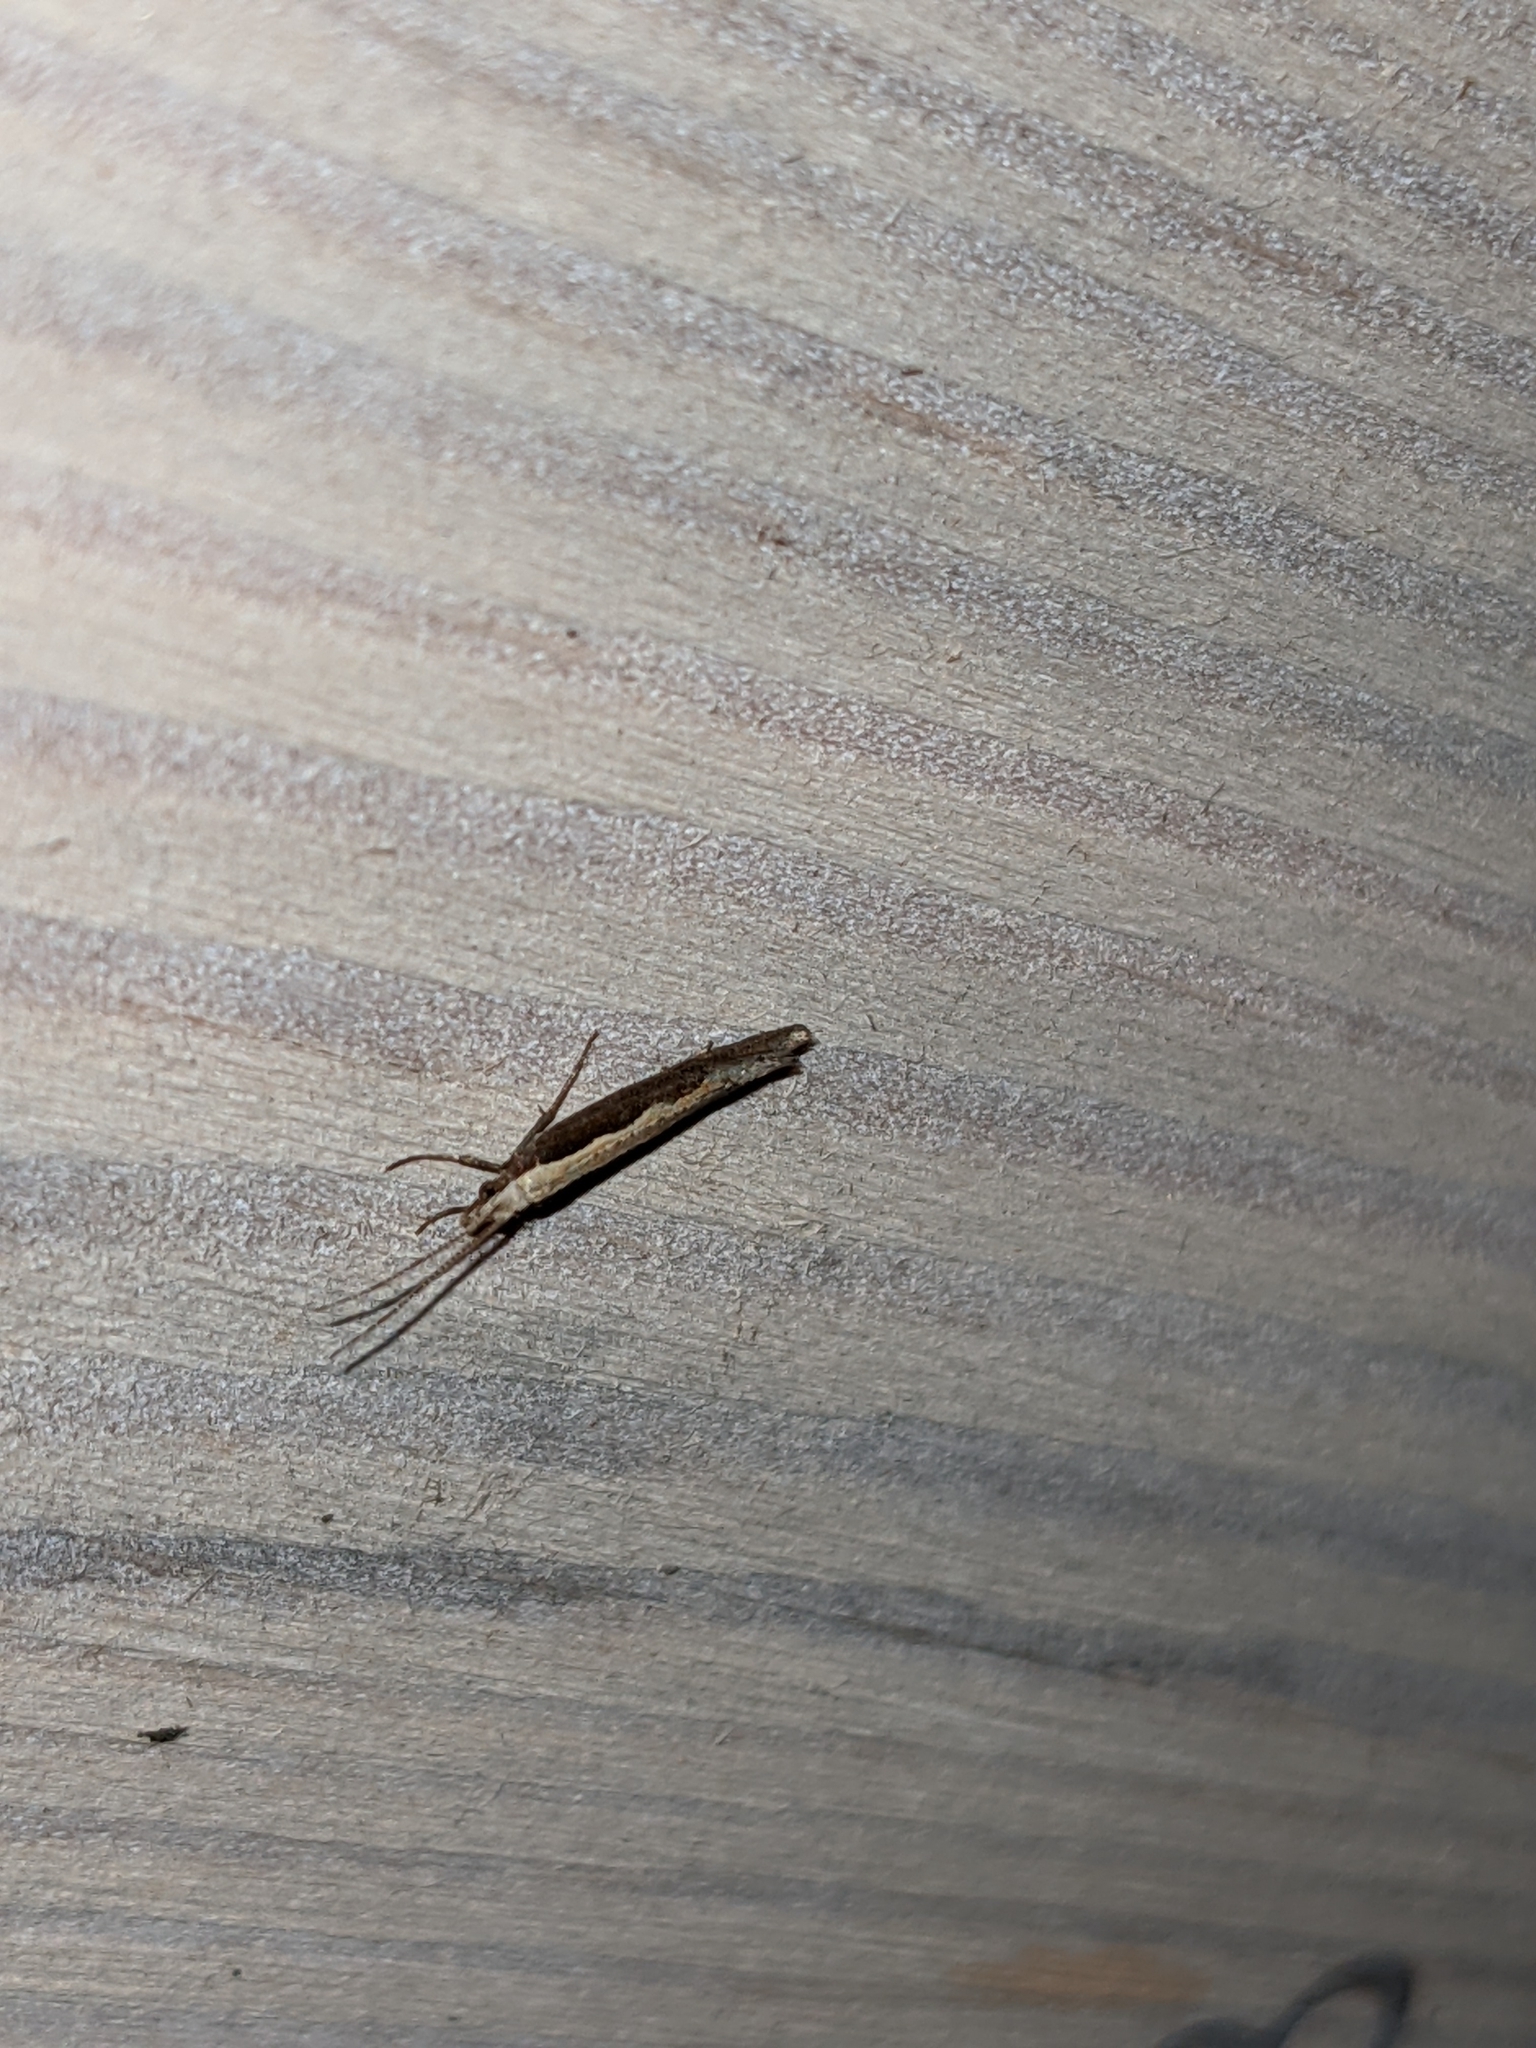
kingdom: Animalia
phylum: Arthropoda
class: Insecta
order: Lepidoptera
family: Plutellidae
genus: Plutella
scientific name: Plutella xylostella
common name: Diamond-back moth
